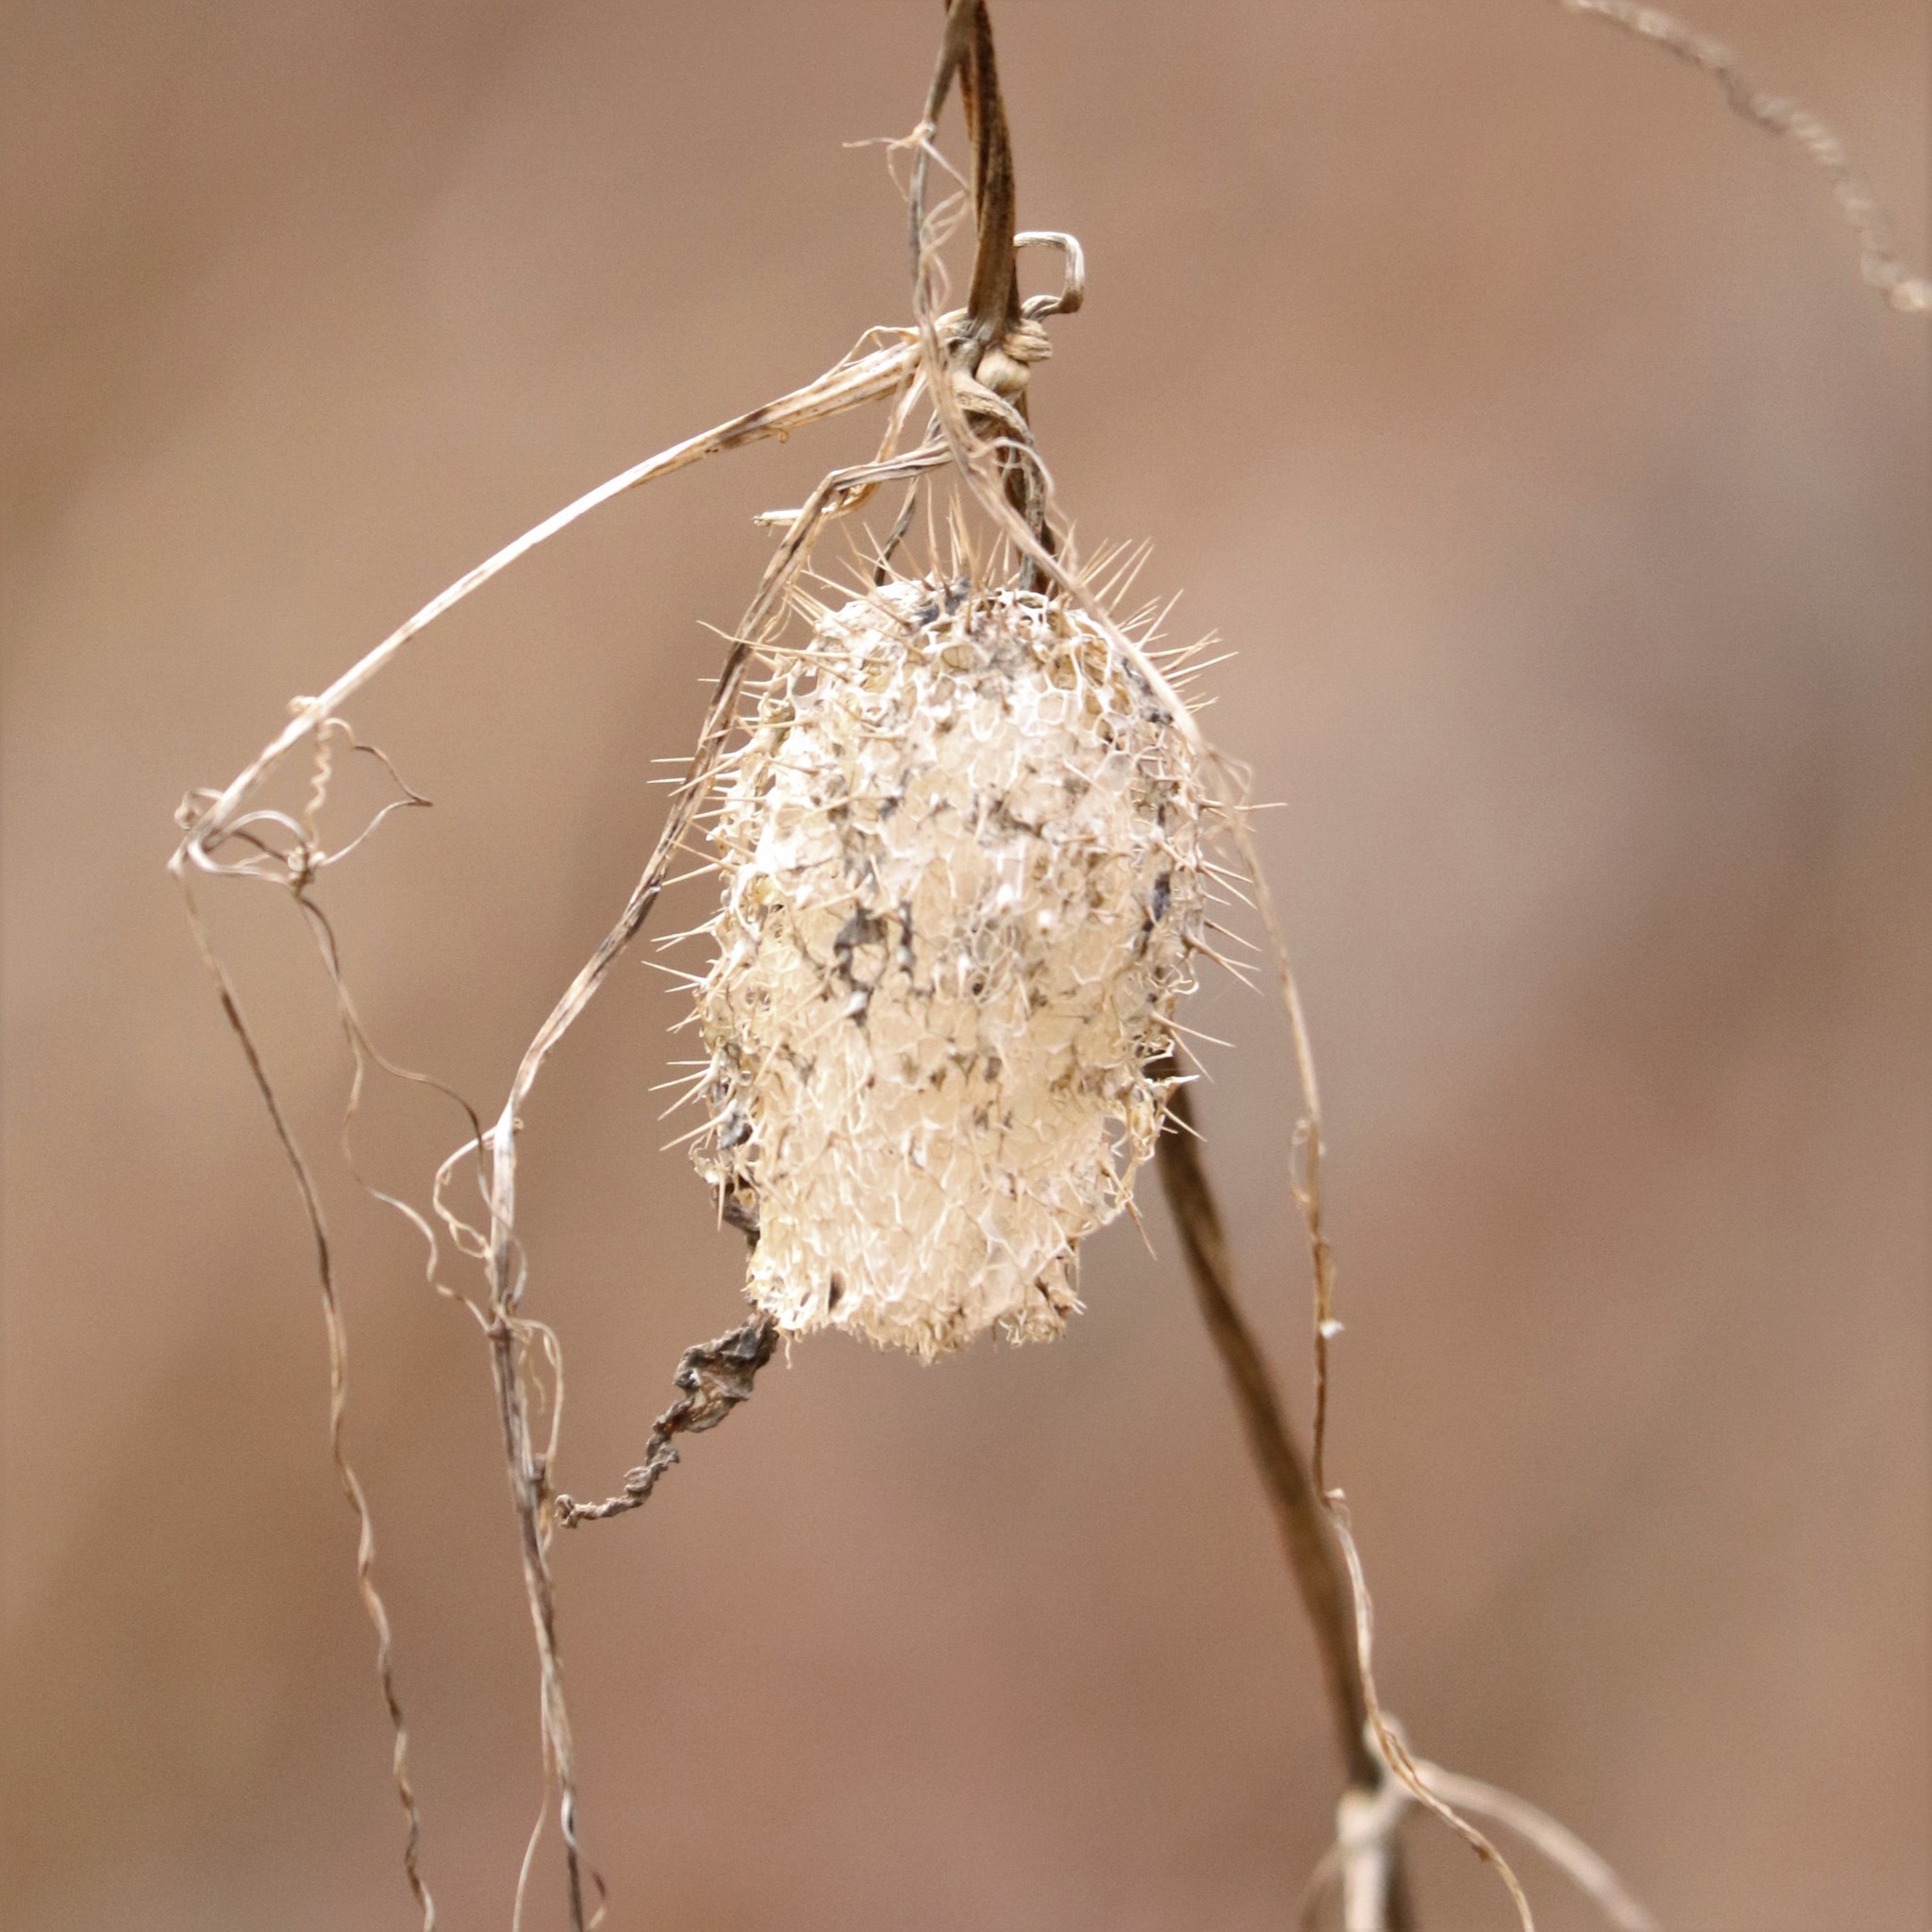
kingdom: Plantae
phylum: Tracheophyta
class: Magnoliopsida
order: Cucurbitales
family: Cucurbitaceae
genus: Echinocystis
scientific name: Echinocystis lobata
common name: Wild cucumber
